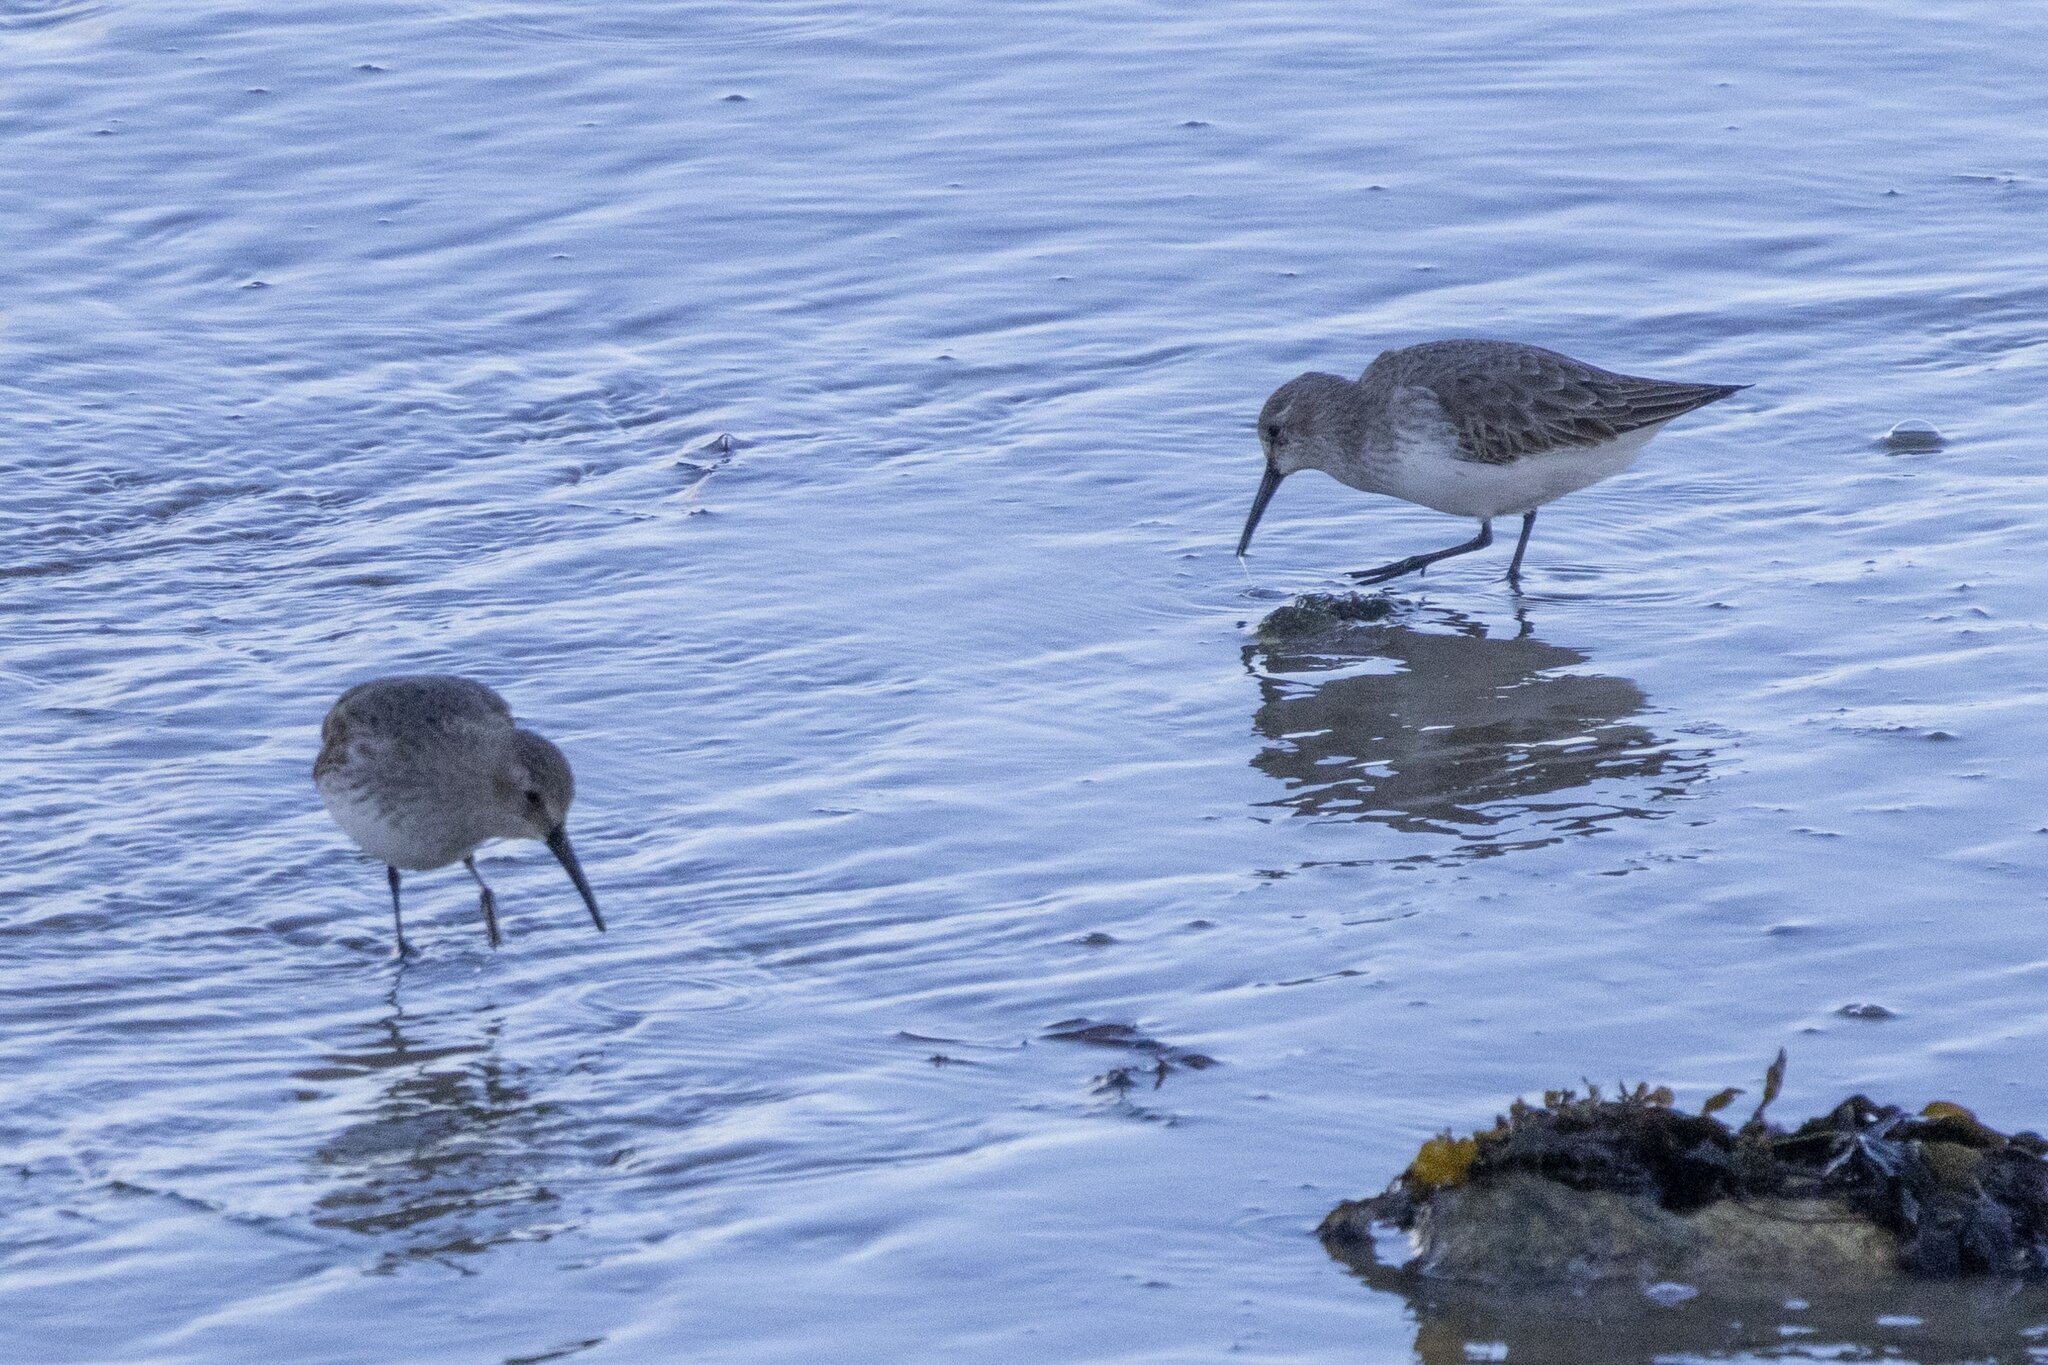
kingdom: Animalia
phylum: Chordata
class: Aves
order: Charadriiformes
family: Scolopacidae
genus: Calidris
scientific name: Calidris alpina
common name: Dunlin
